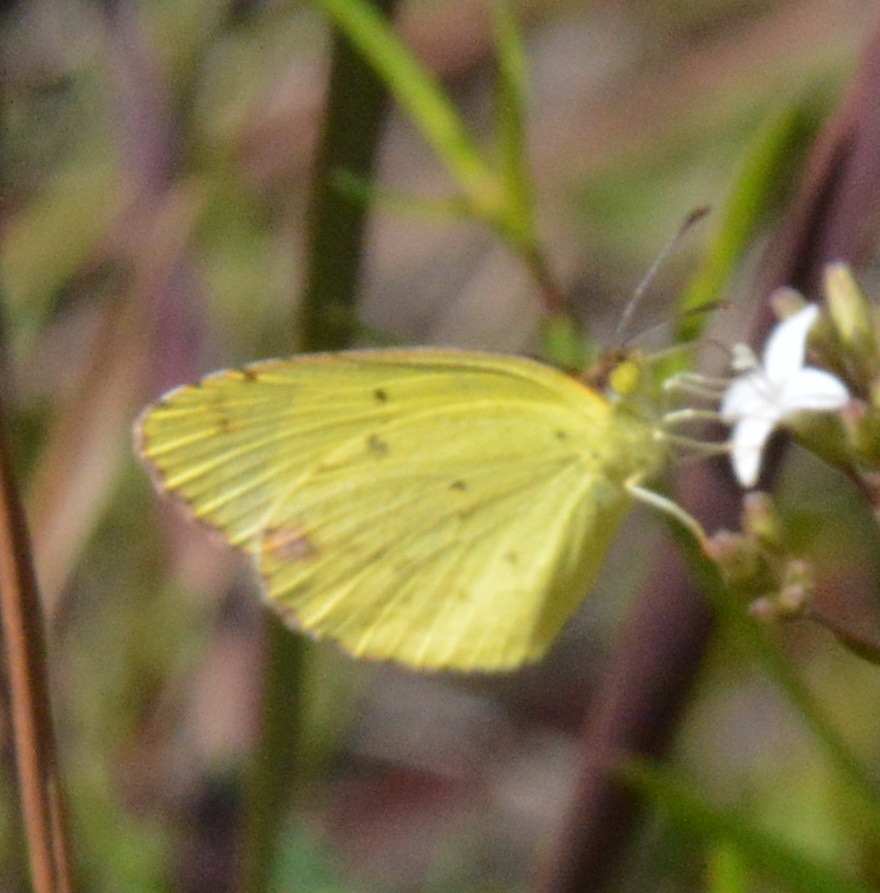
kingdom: Animalia
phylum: Arthropoda
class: Insecta
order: Lepidoptera
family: Pieridae
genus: Pyrisitia
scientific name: Pyrisitia lisa
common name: Little yellow
